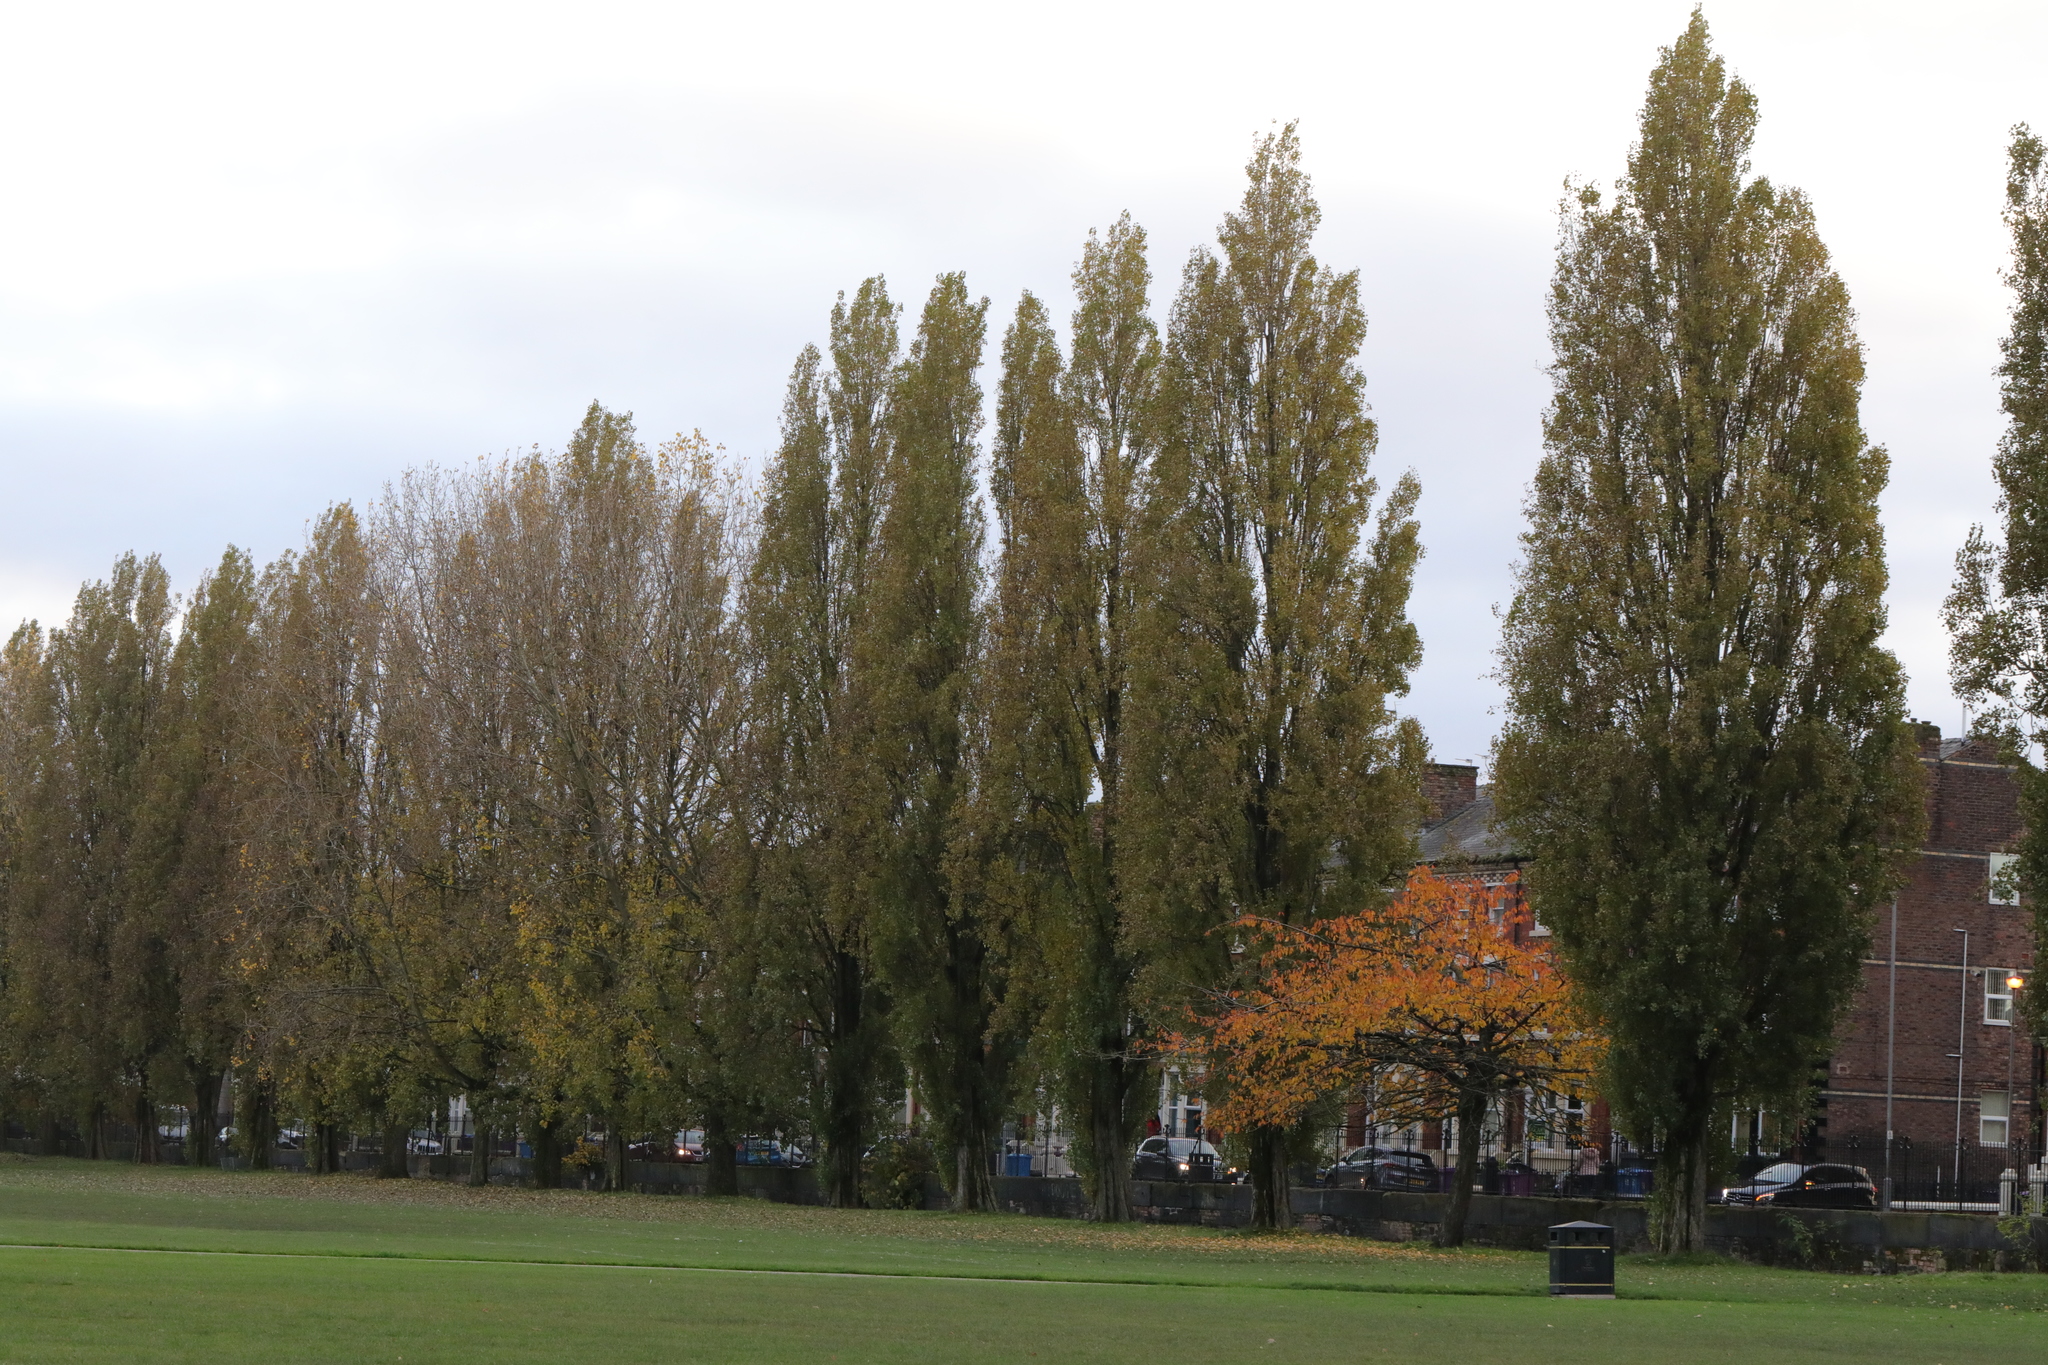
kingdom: Plantae
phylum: Tracheophyta
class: Magnoliopsida
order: Malpighiales
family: Salicaceae
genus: Populus
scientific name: Populus nigra
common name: Black poplar
